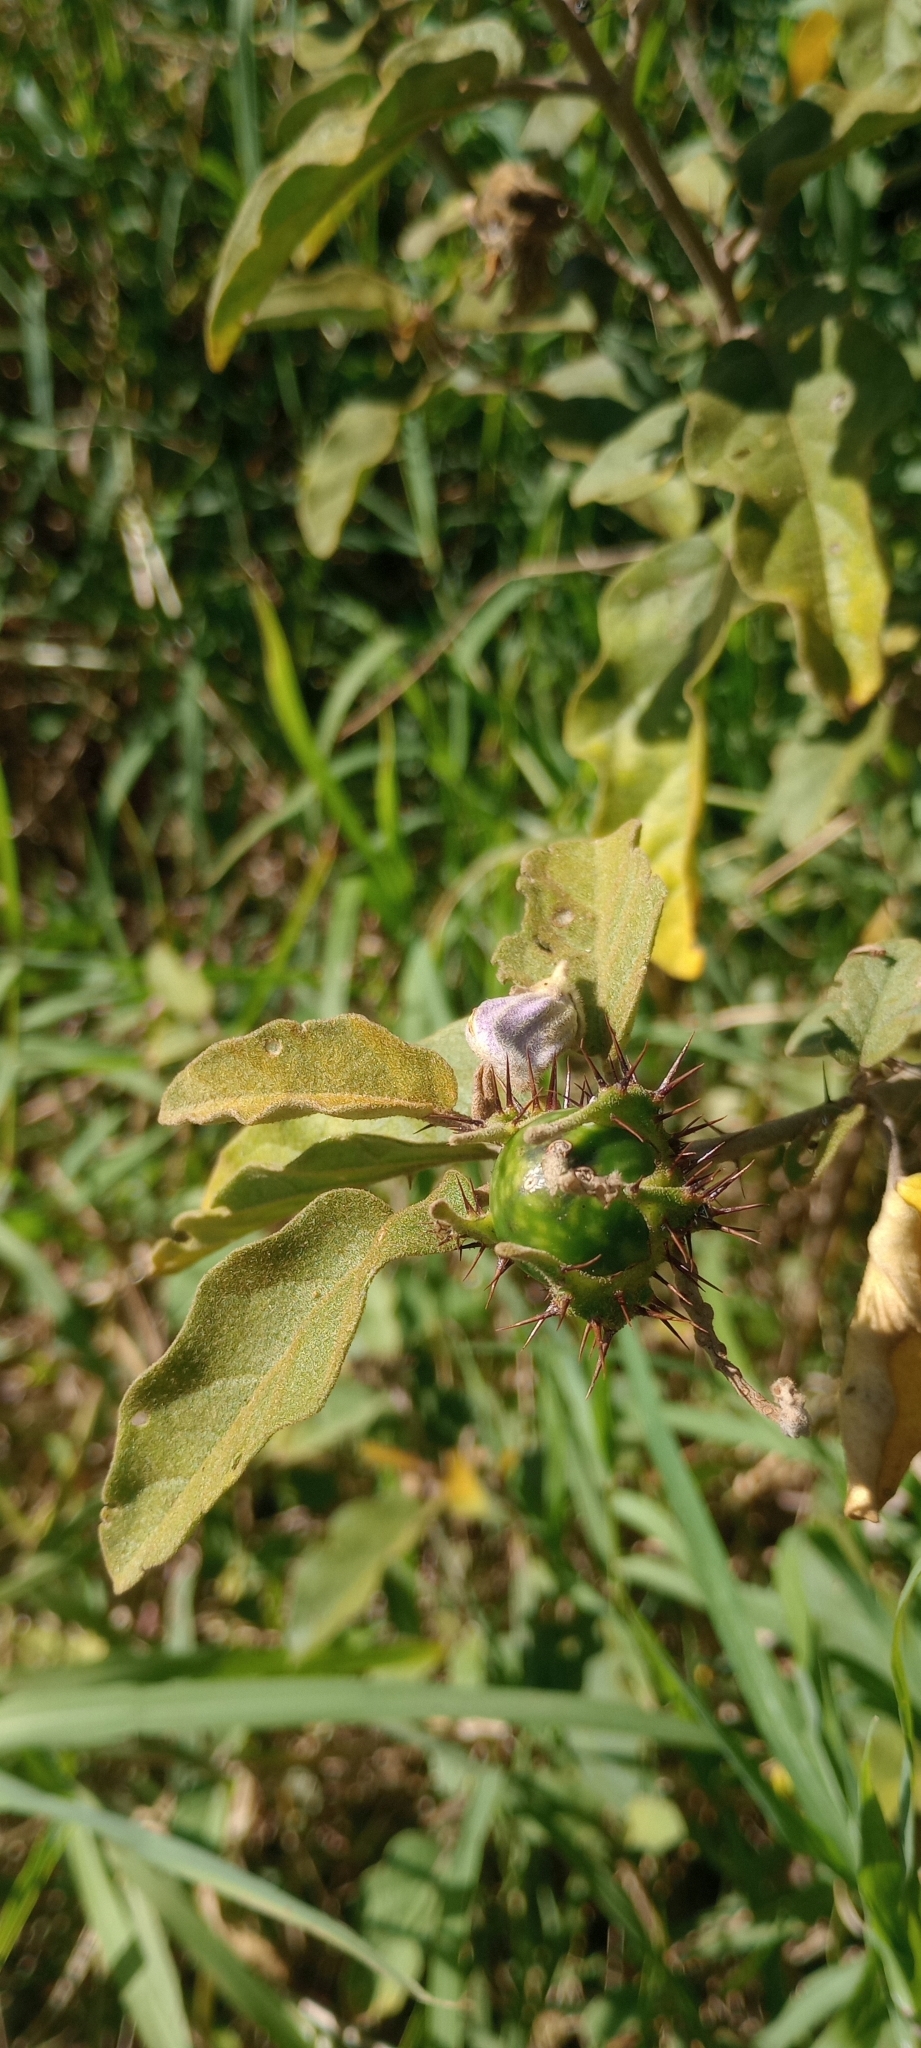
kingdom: Plantae
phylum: Tracheophyta
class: Magnoliopsida
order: Solanales
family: Solanaceae
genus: Solanum
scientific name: Solanum houstonii
